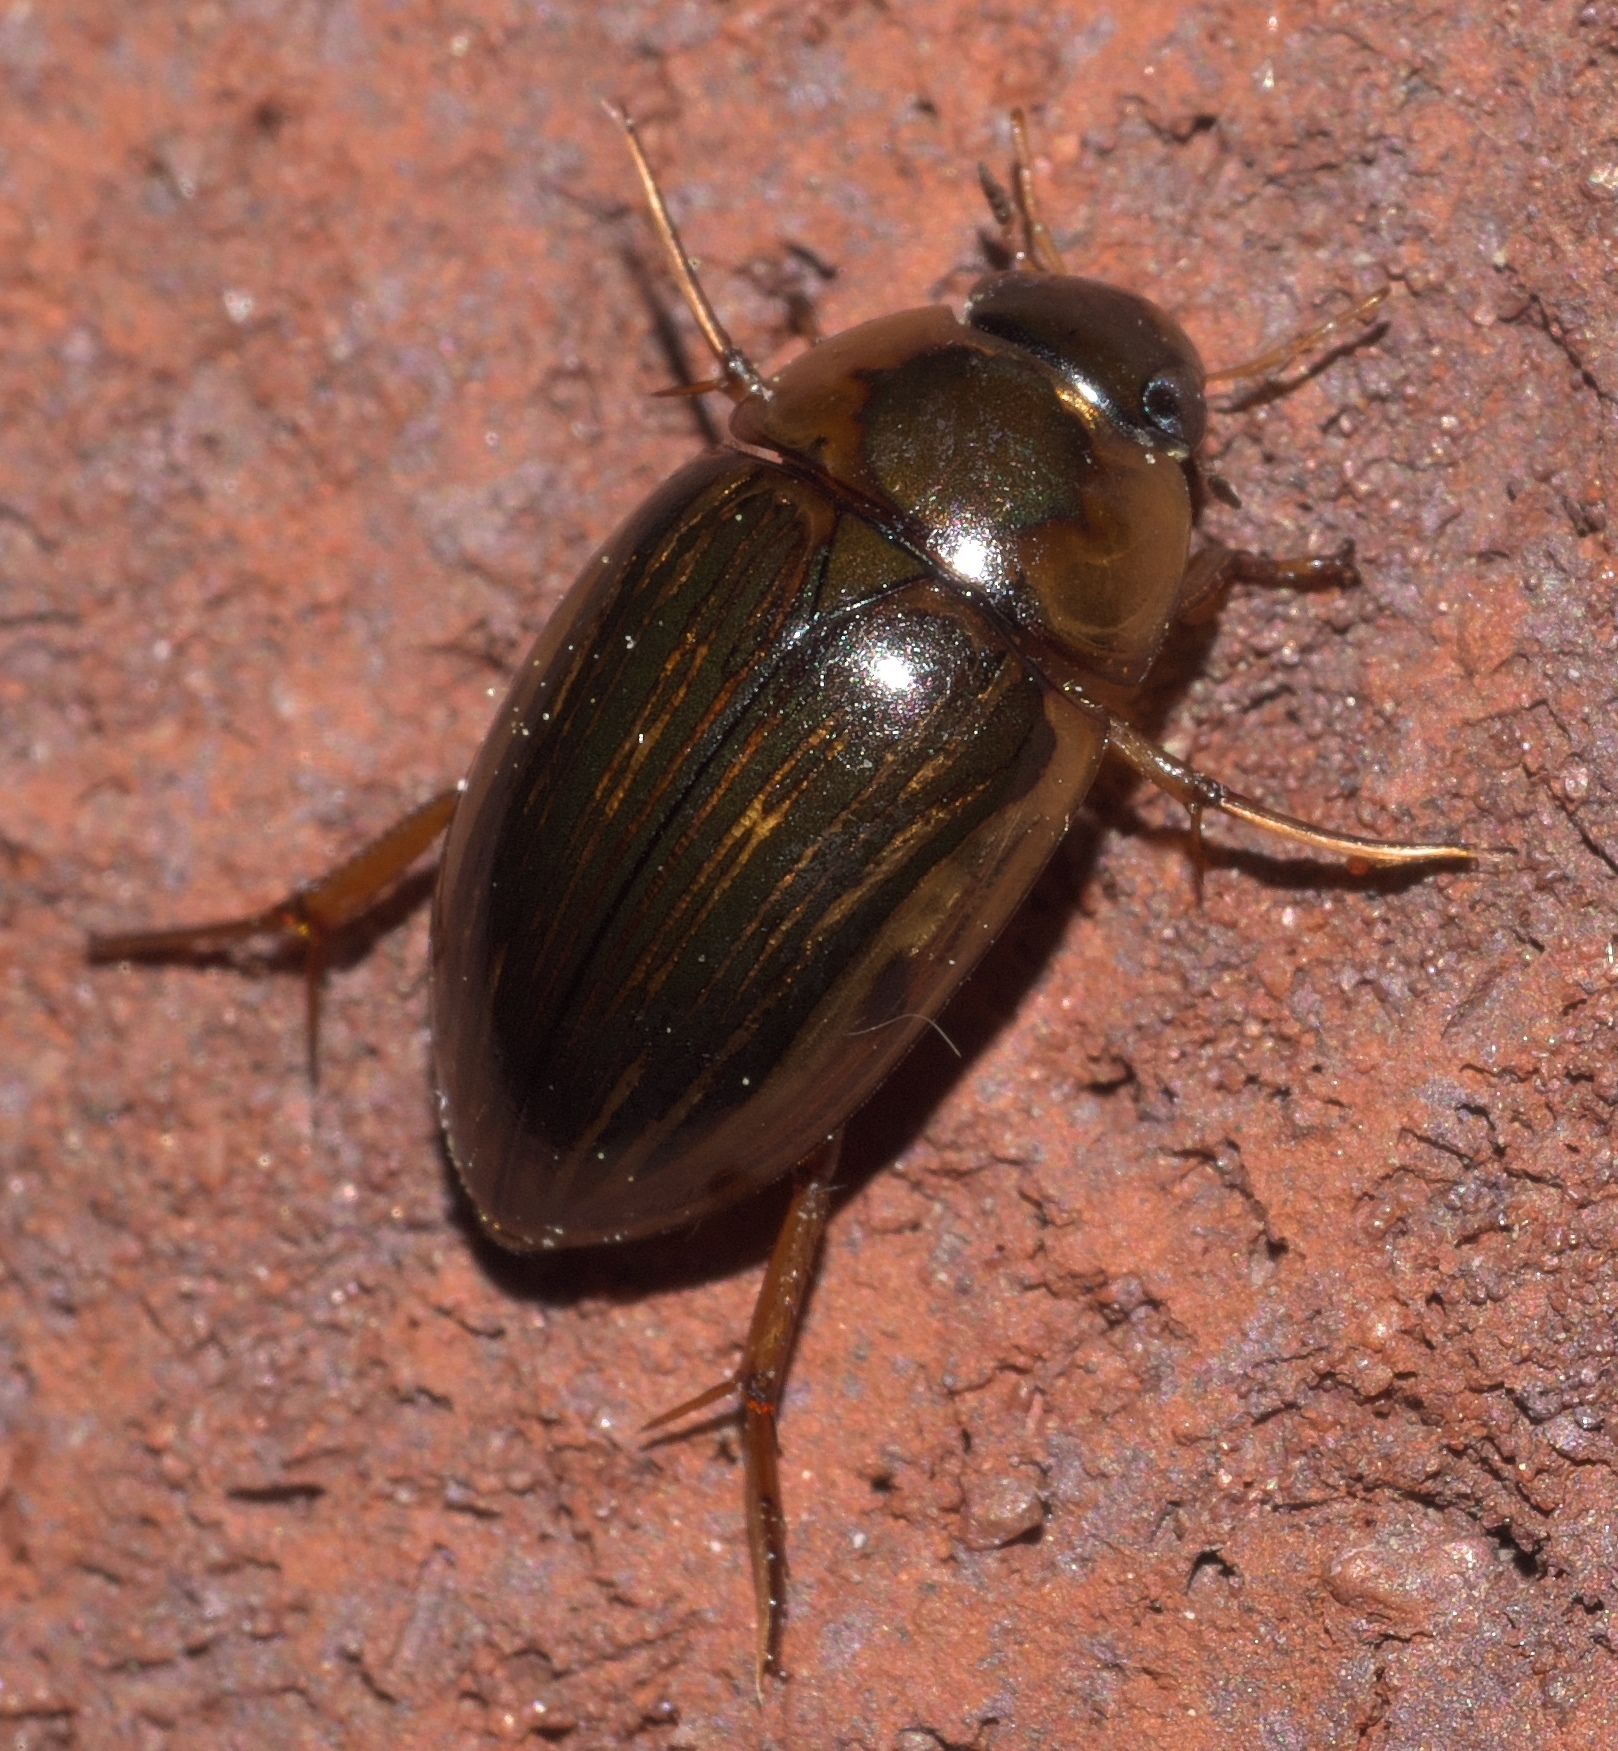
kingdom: Animalia
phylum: Arthropoda
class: Insecta
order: Coleoptera
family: Hydrophilidae
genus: Tropisternus
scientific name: Tropisternus collaris
